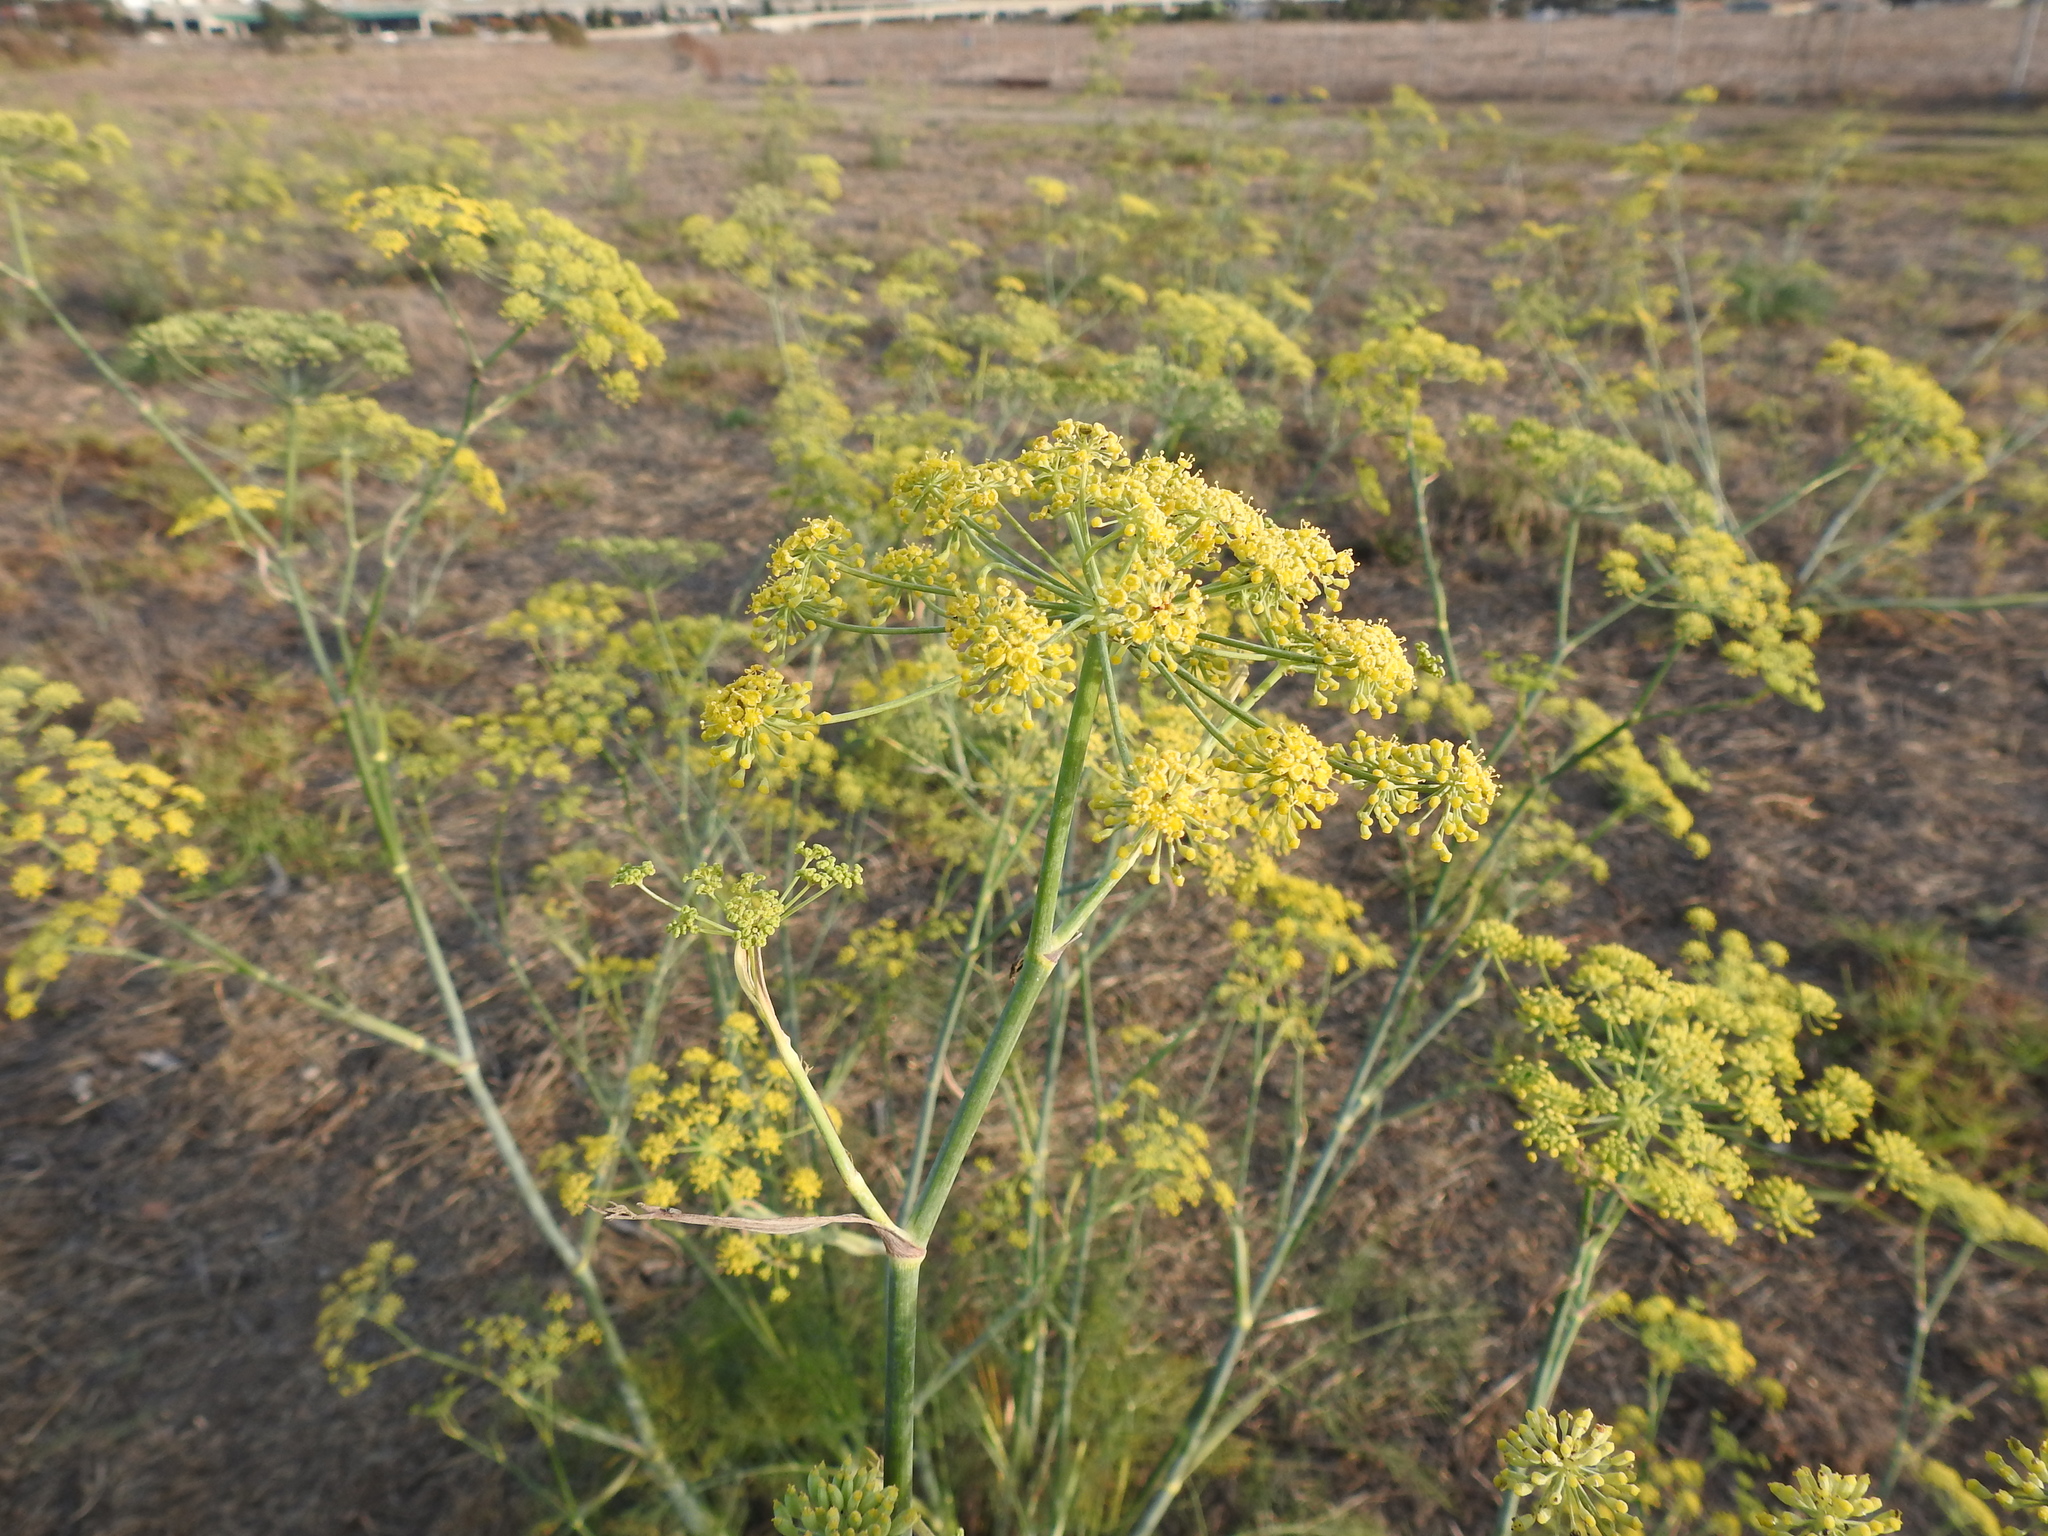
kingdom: Plantae
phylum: Tracheophyta
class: Magnoliopsida
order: Apiales
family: Apiaceae
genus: Foeniculum
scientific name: Foeniculum vulgare
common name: Fennel
